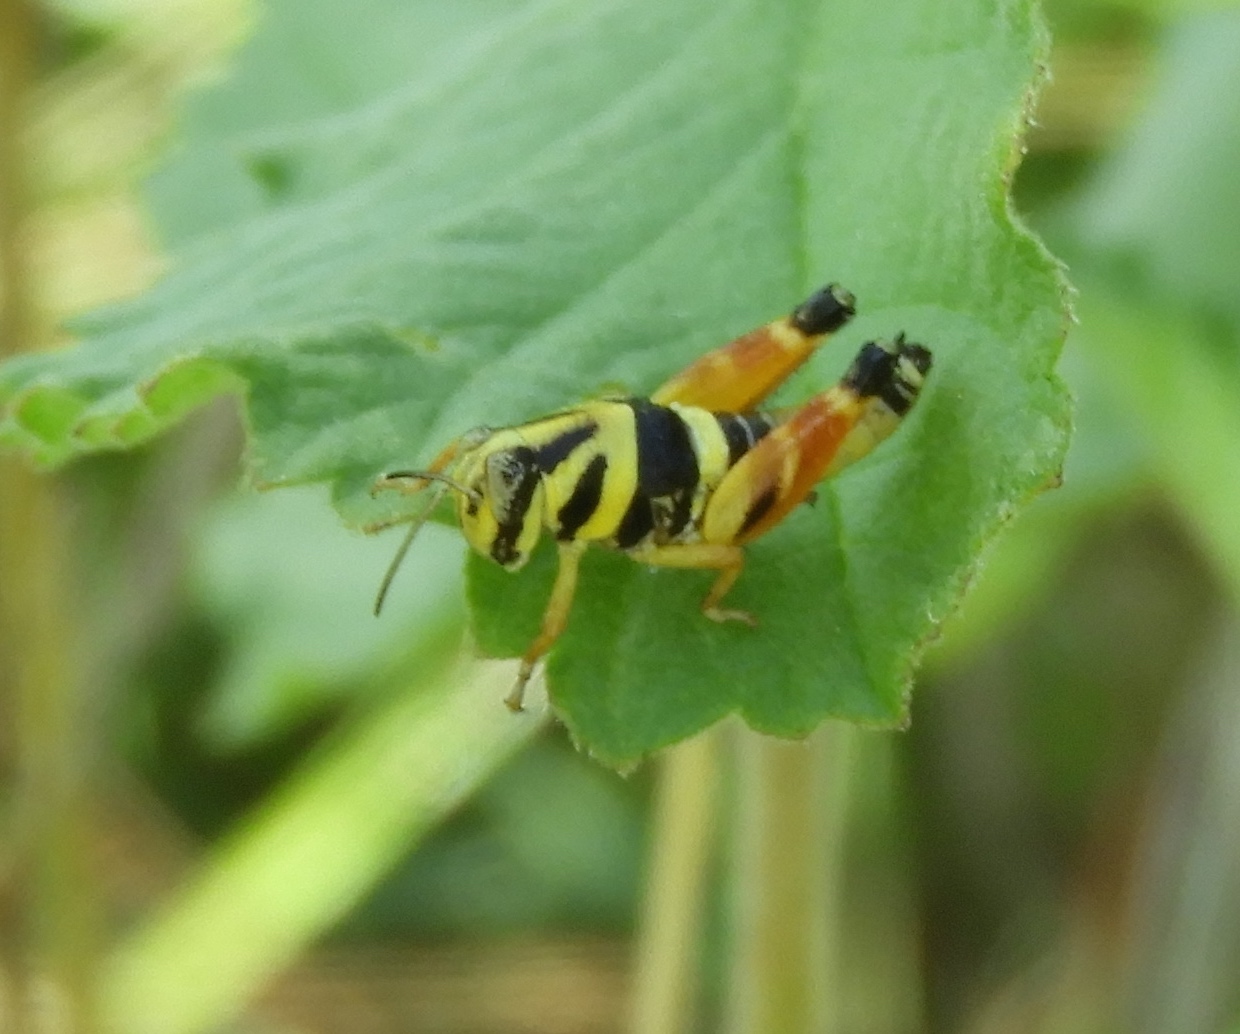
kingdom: Animalia
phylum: Arthropoda
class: Insecta
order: Orthoptera
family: Acrididae
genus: Aidemona
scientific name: Aidemona azteca
